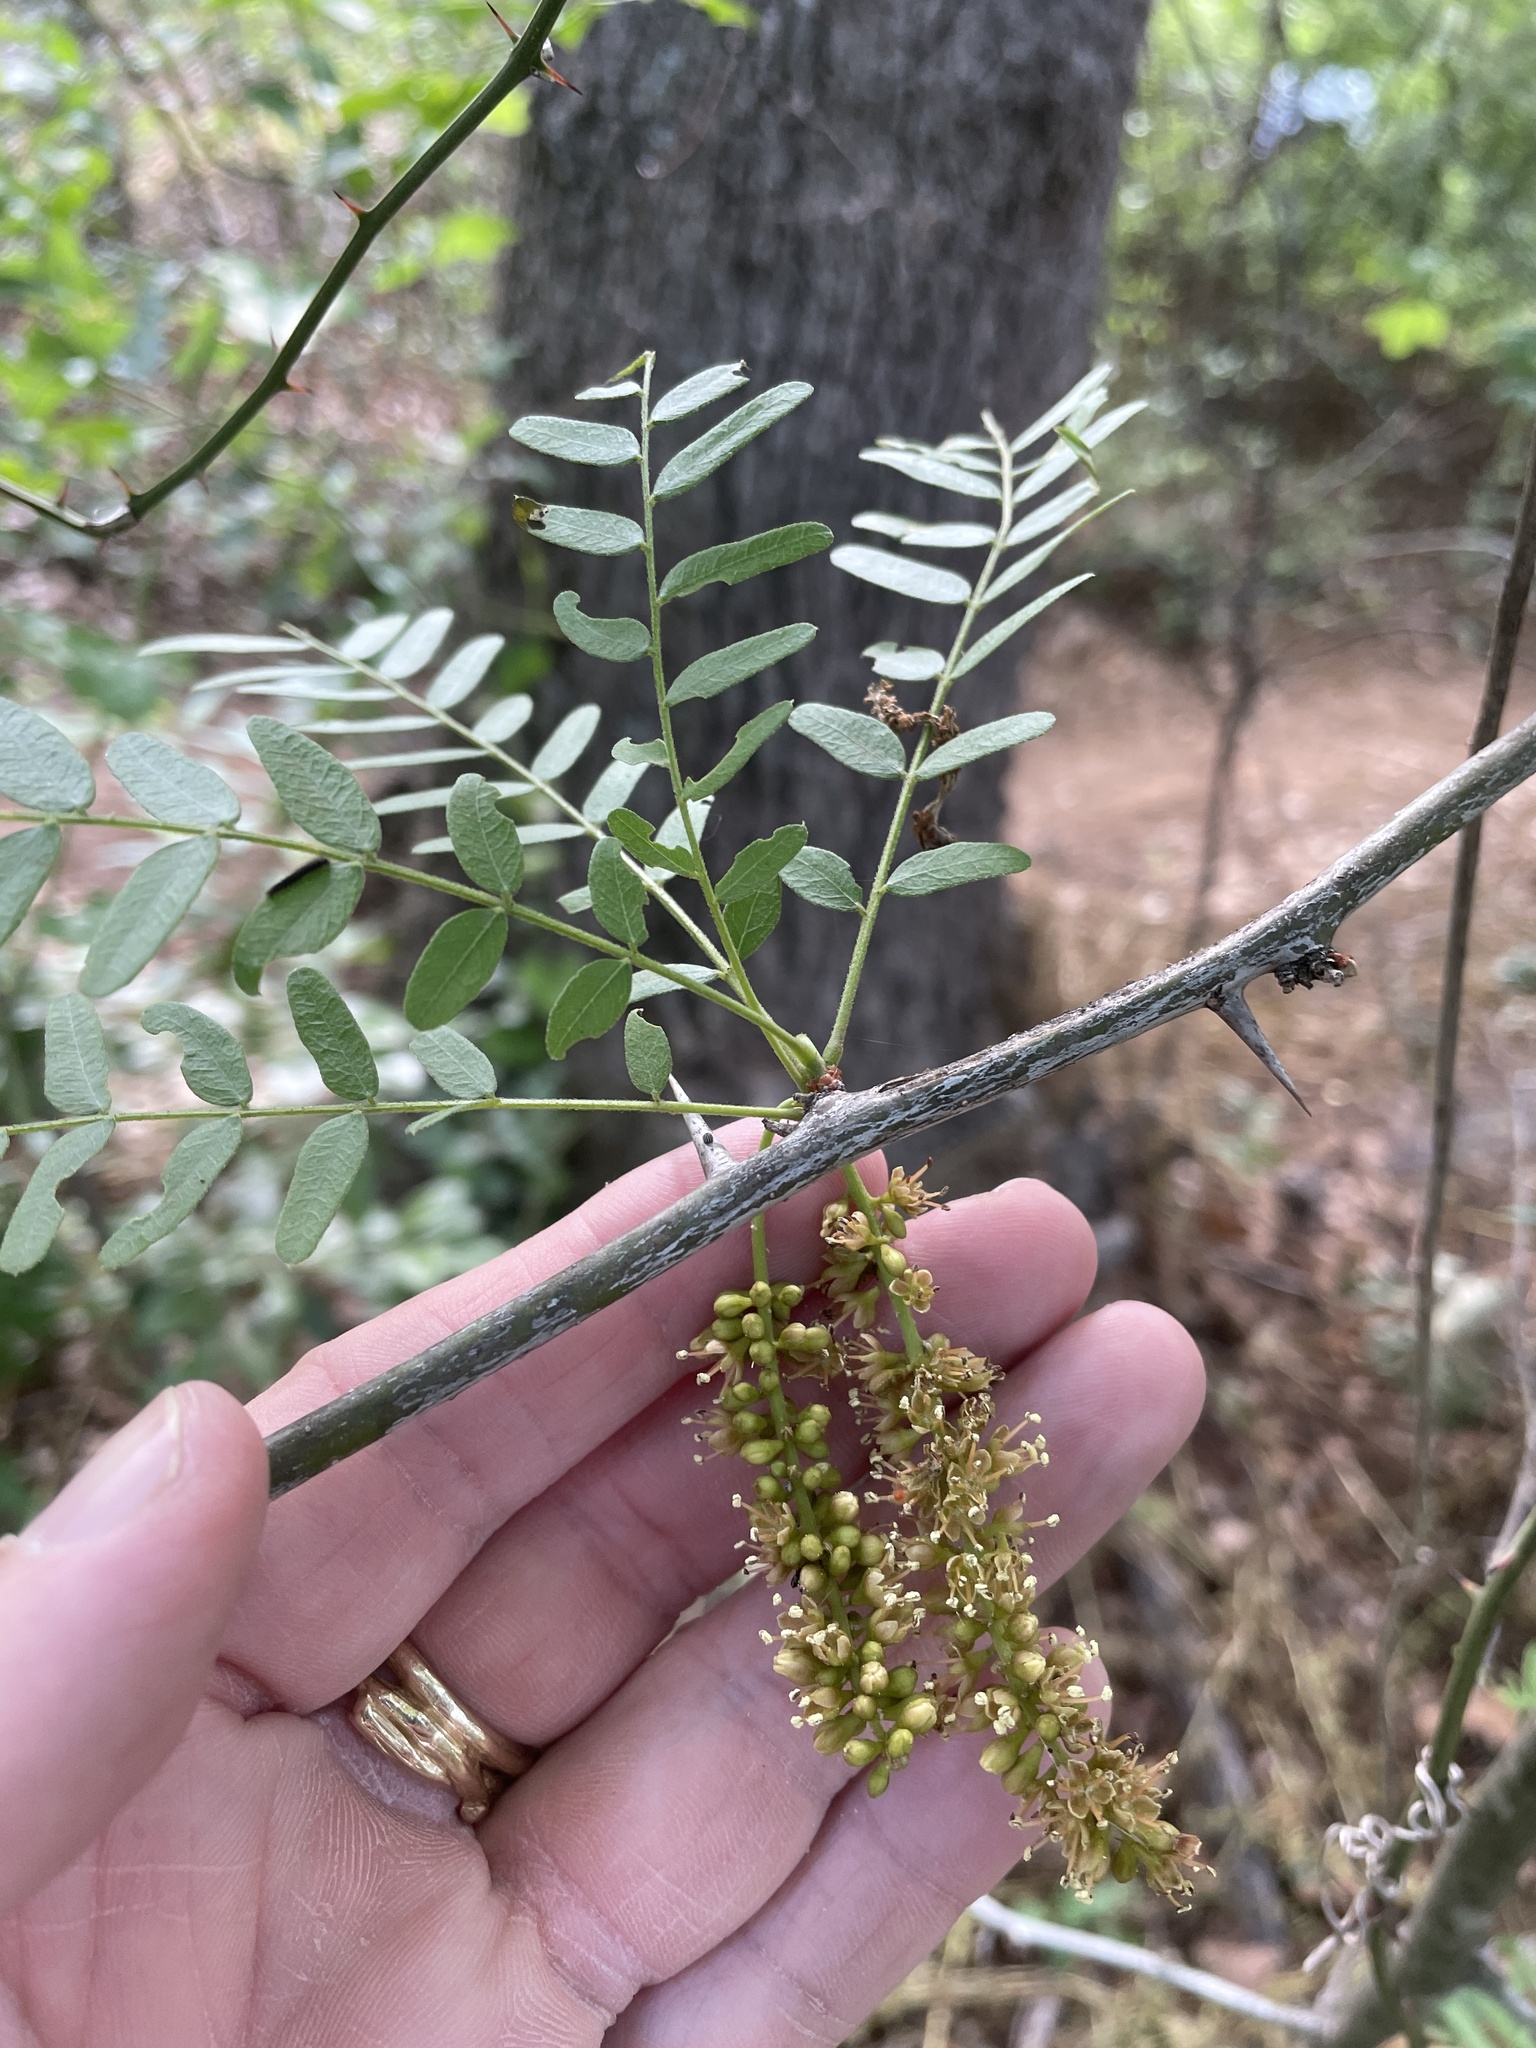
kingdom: Plantae
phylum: Tracheophyta
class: Magnoliopsida
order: Fabales
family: Fabaceae
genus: Gleditsia
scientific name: Gleditsia triacanthos
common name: Common honeylocust
